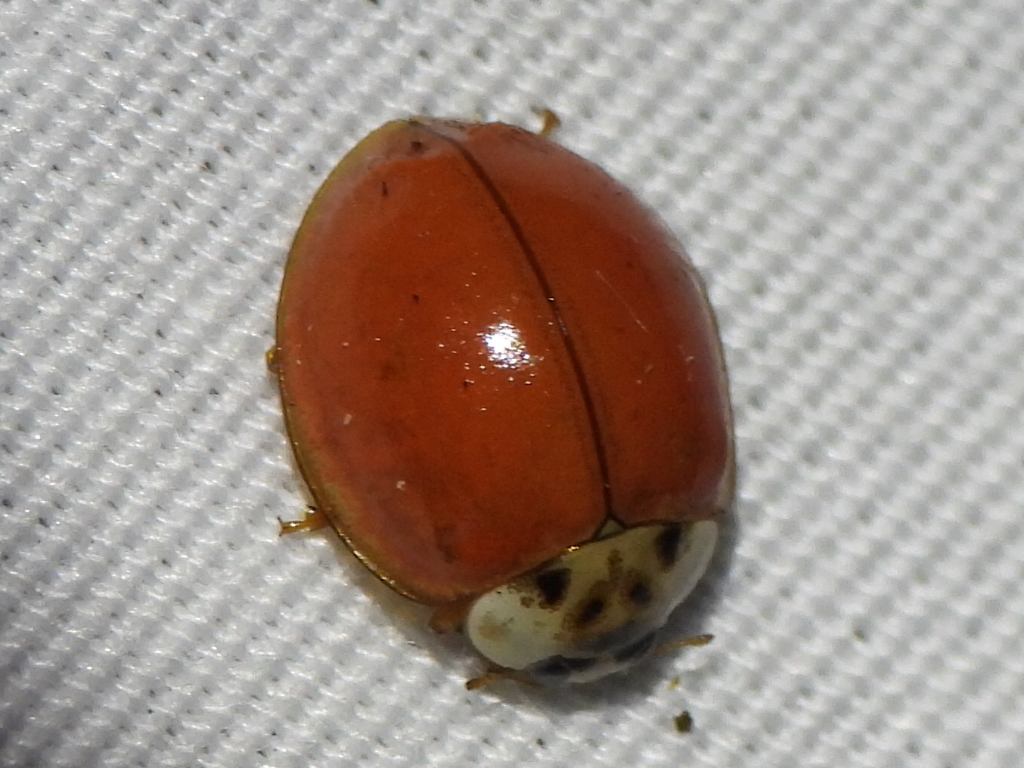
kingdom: Animalia
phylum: Arthropoda
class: Insecta
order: Coleoptera
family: Coccinellidae
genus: Harmonia
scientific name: Harmonia axyridis
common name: Harlequin ladybird
